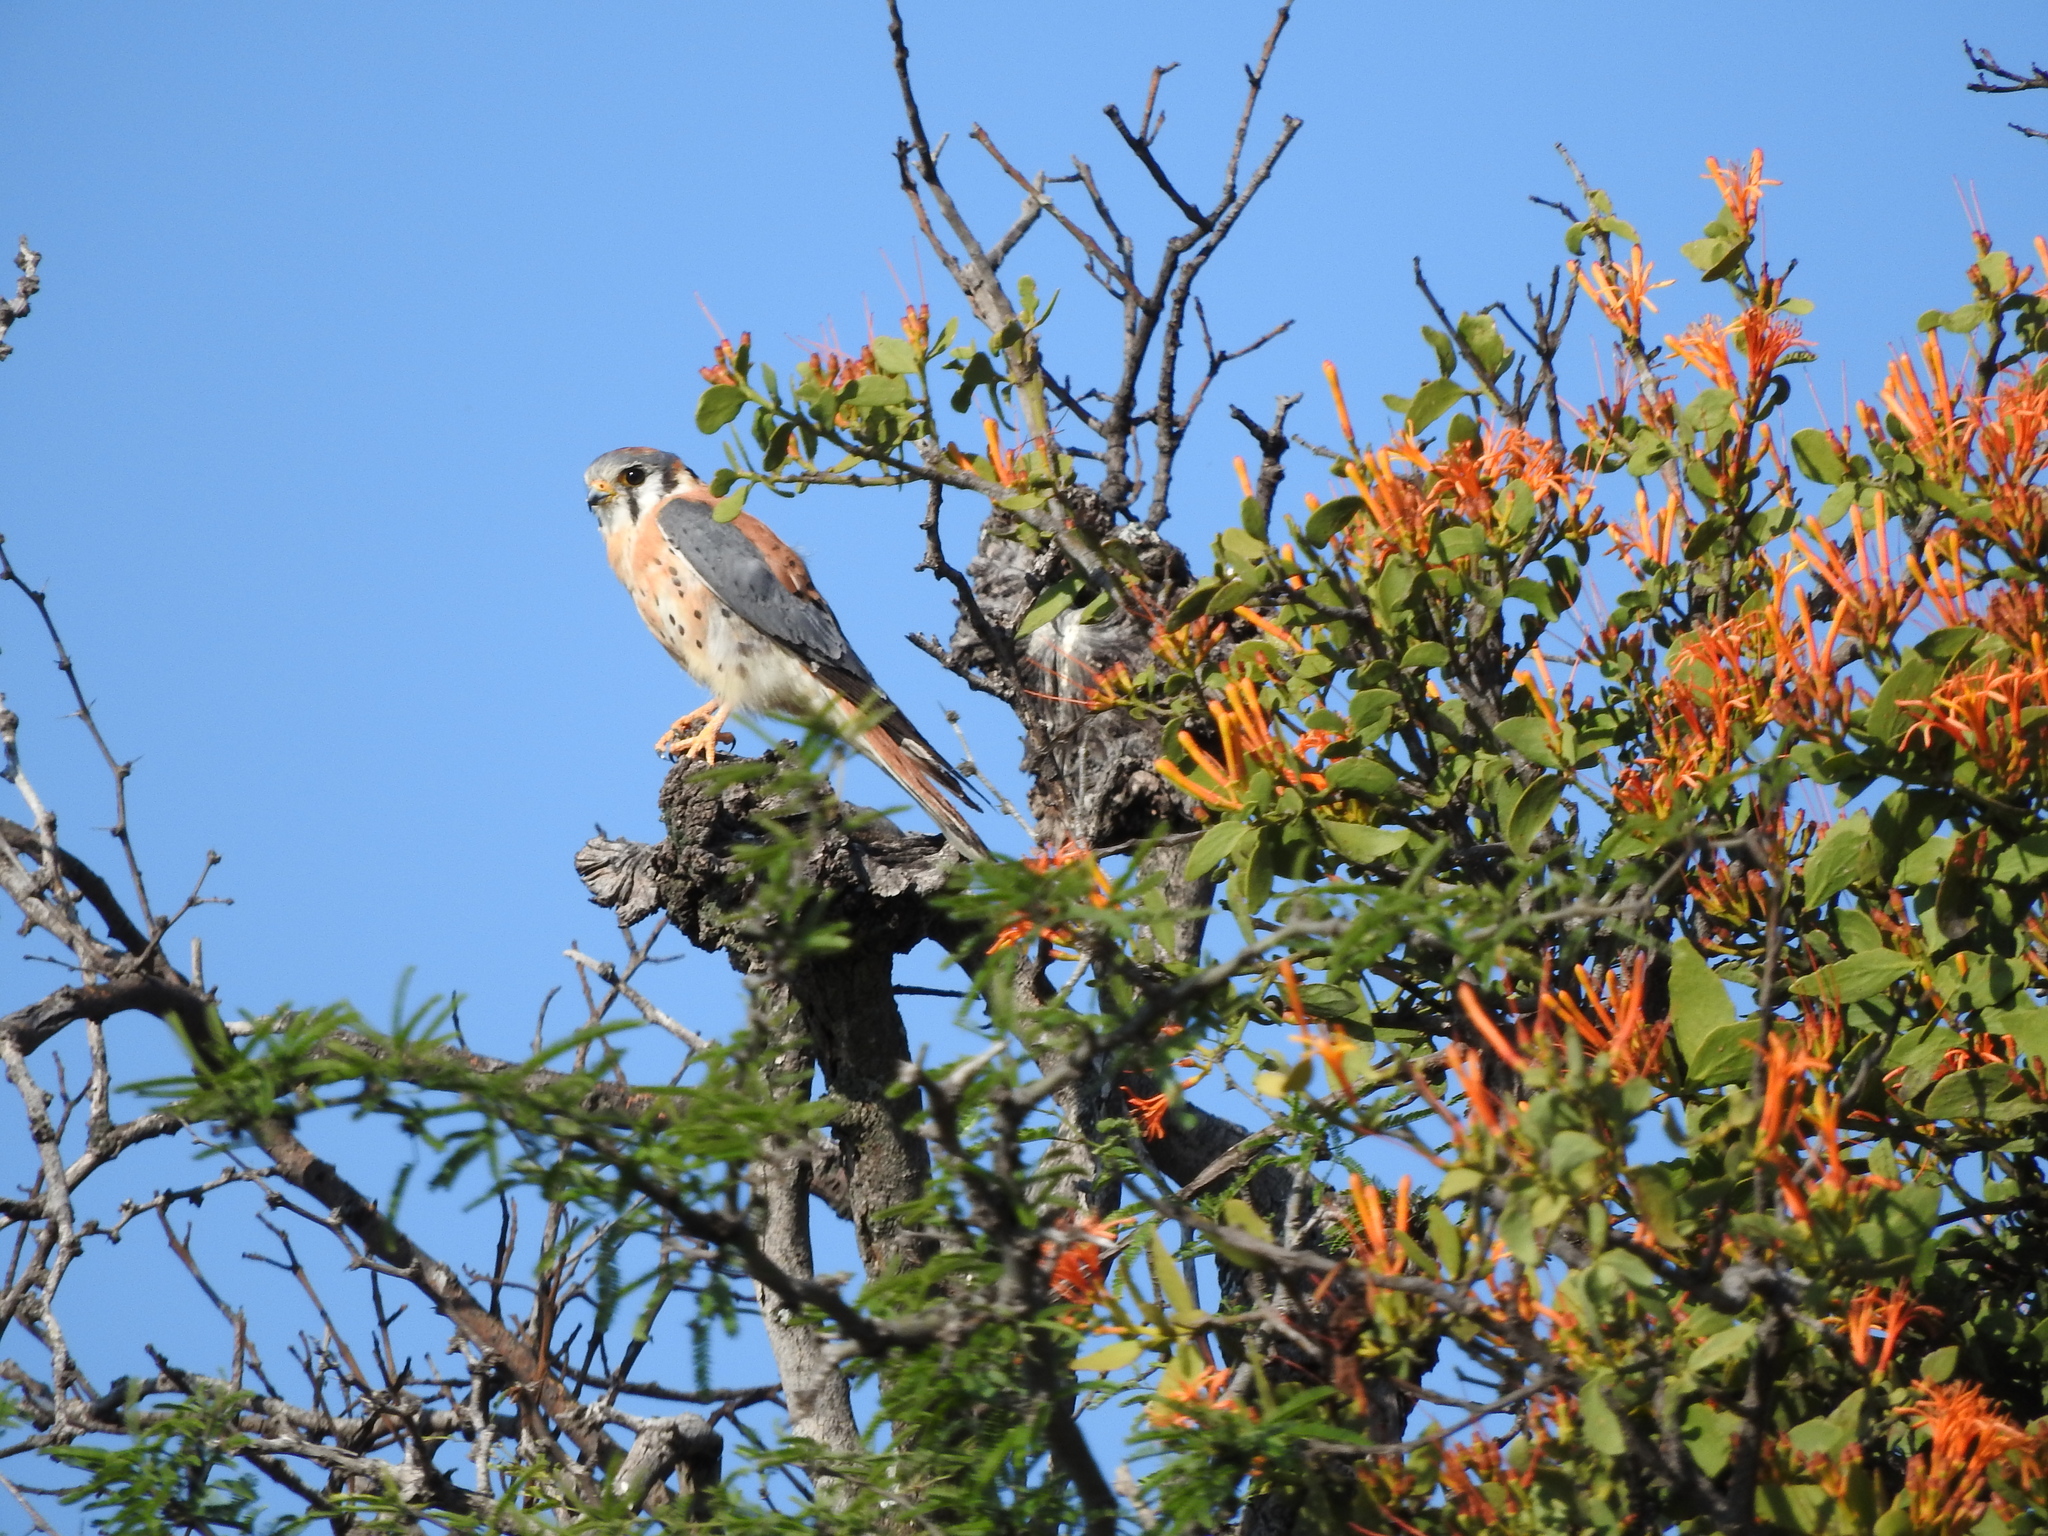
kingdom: Animalia
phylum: Chordata
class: Aves
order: Falconiformes
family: Falconidae
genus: Falco
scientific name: Falco sparverius
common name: American kestrel
